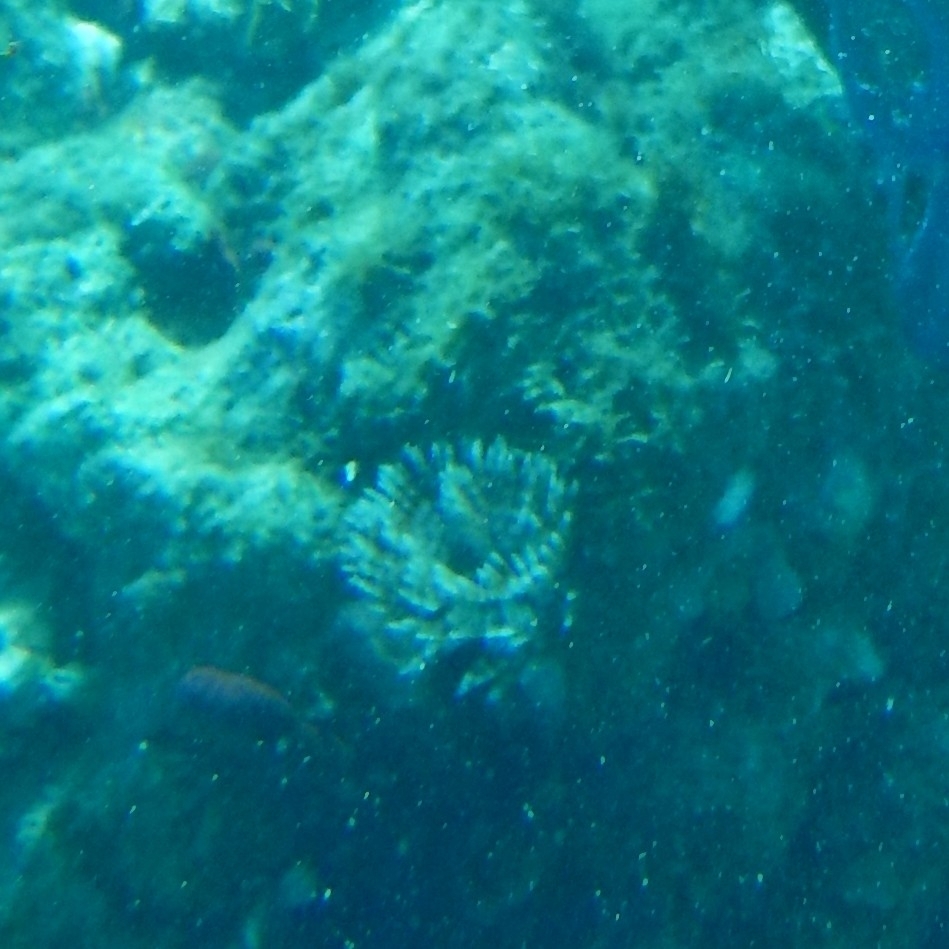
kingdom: Animalia
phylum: Annelida
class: Polychaeta
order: Sabellida
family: Sabellidae
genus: Sabellastarte
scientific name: Sabellastarte magnifica
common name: Giant feather-duster worm
